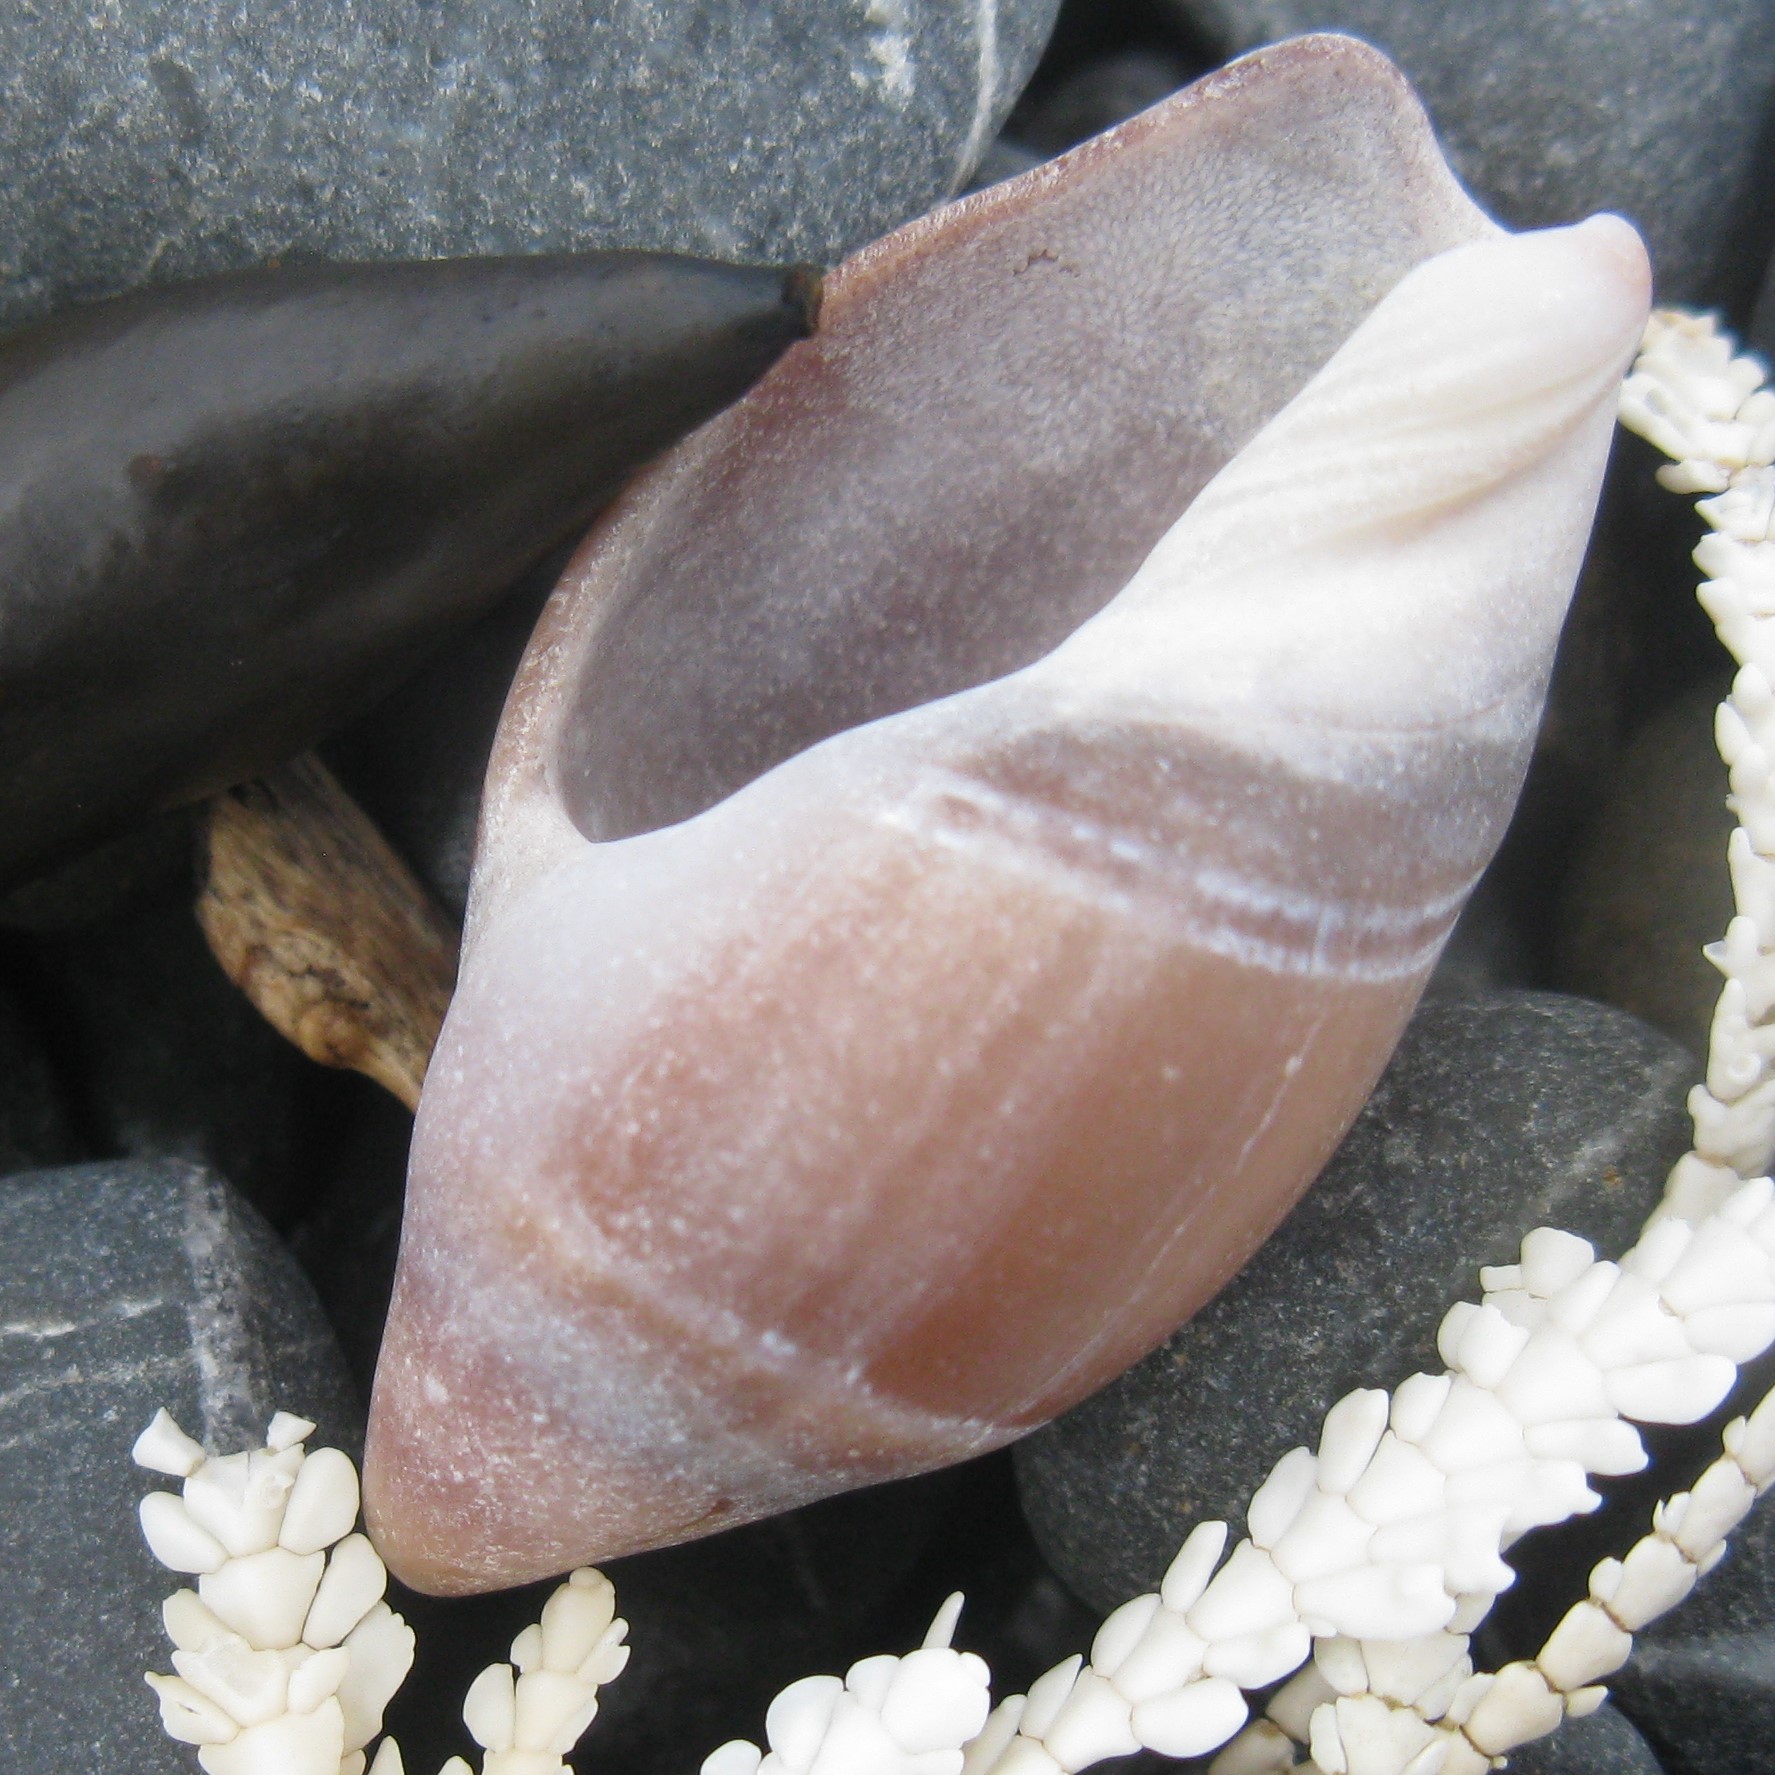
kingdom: Animalia
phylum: Mollusca
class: Gastropoda
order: Neogastropoda
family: Ancillariidae
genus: Amalda
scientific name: Amalda australis
